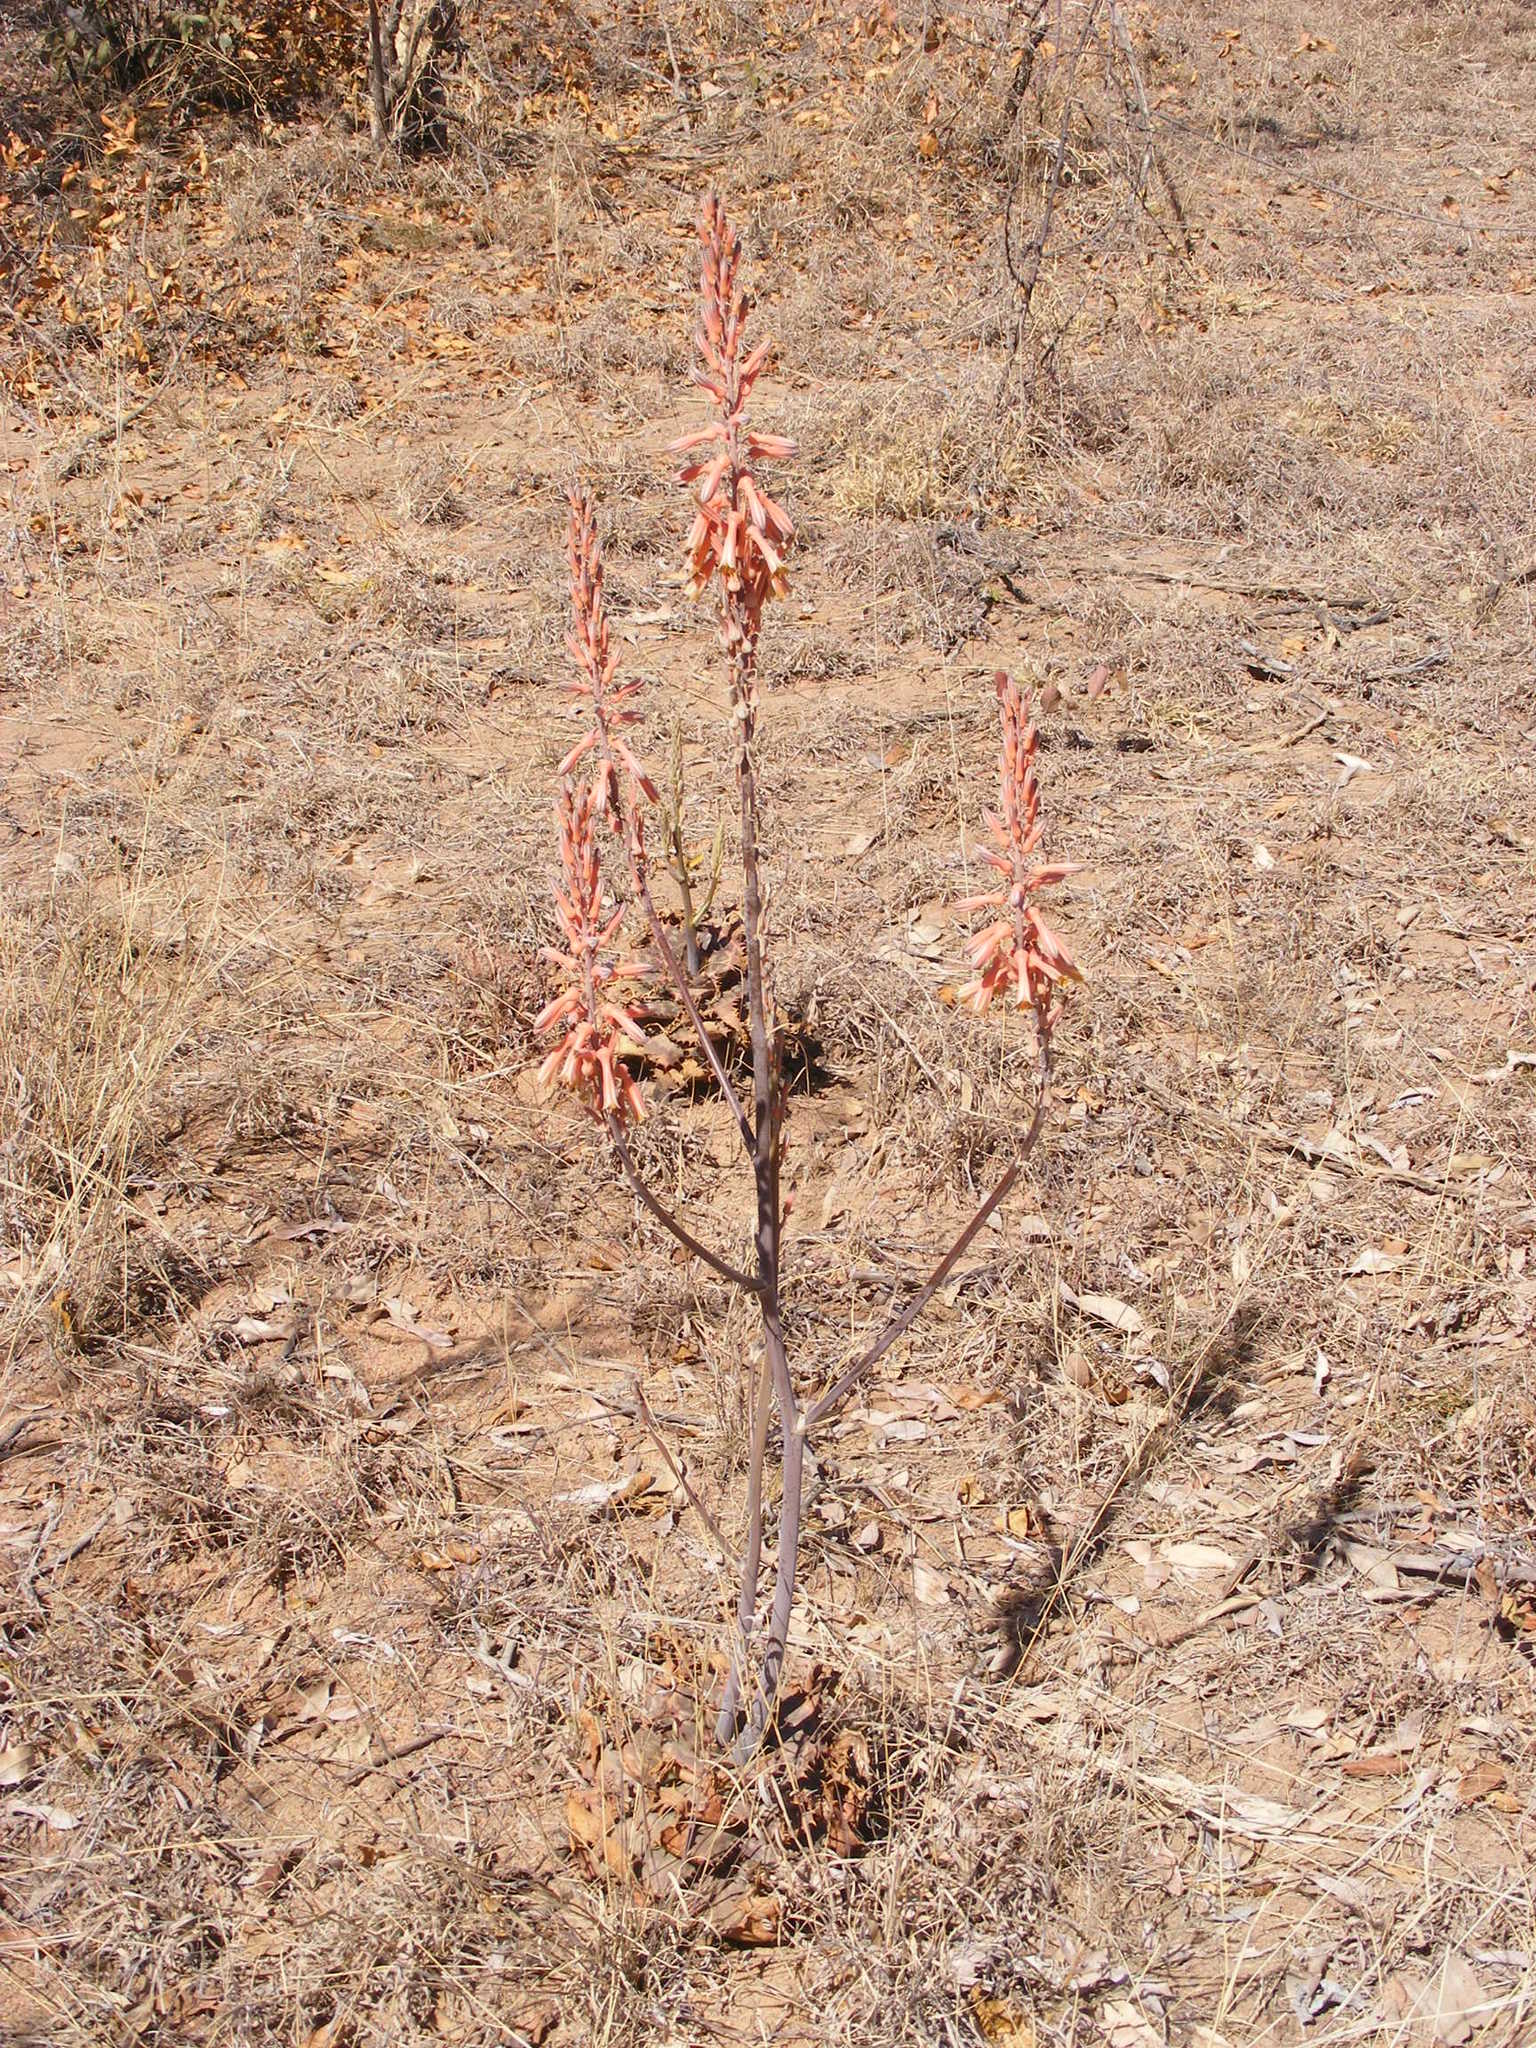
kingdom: Plantae
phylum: Tracheophyta
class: Liliopsida
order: Asparagales
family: Asphodelaceae
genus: Aloe
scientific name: Aloe longibracteata
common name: Limpopo spotted aloe
